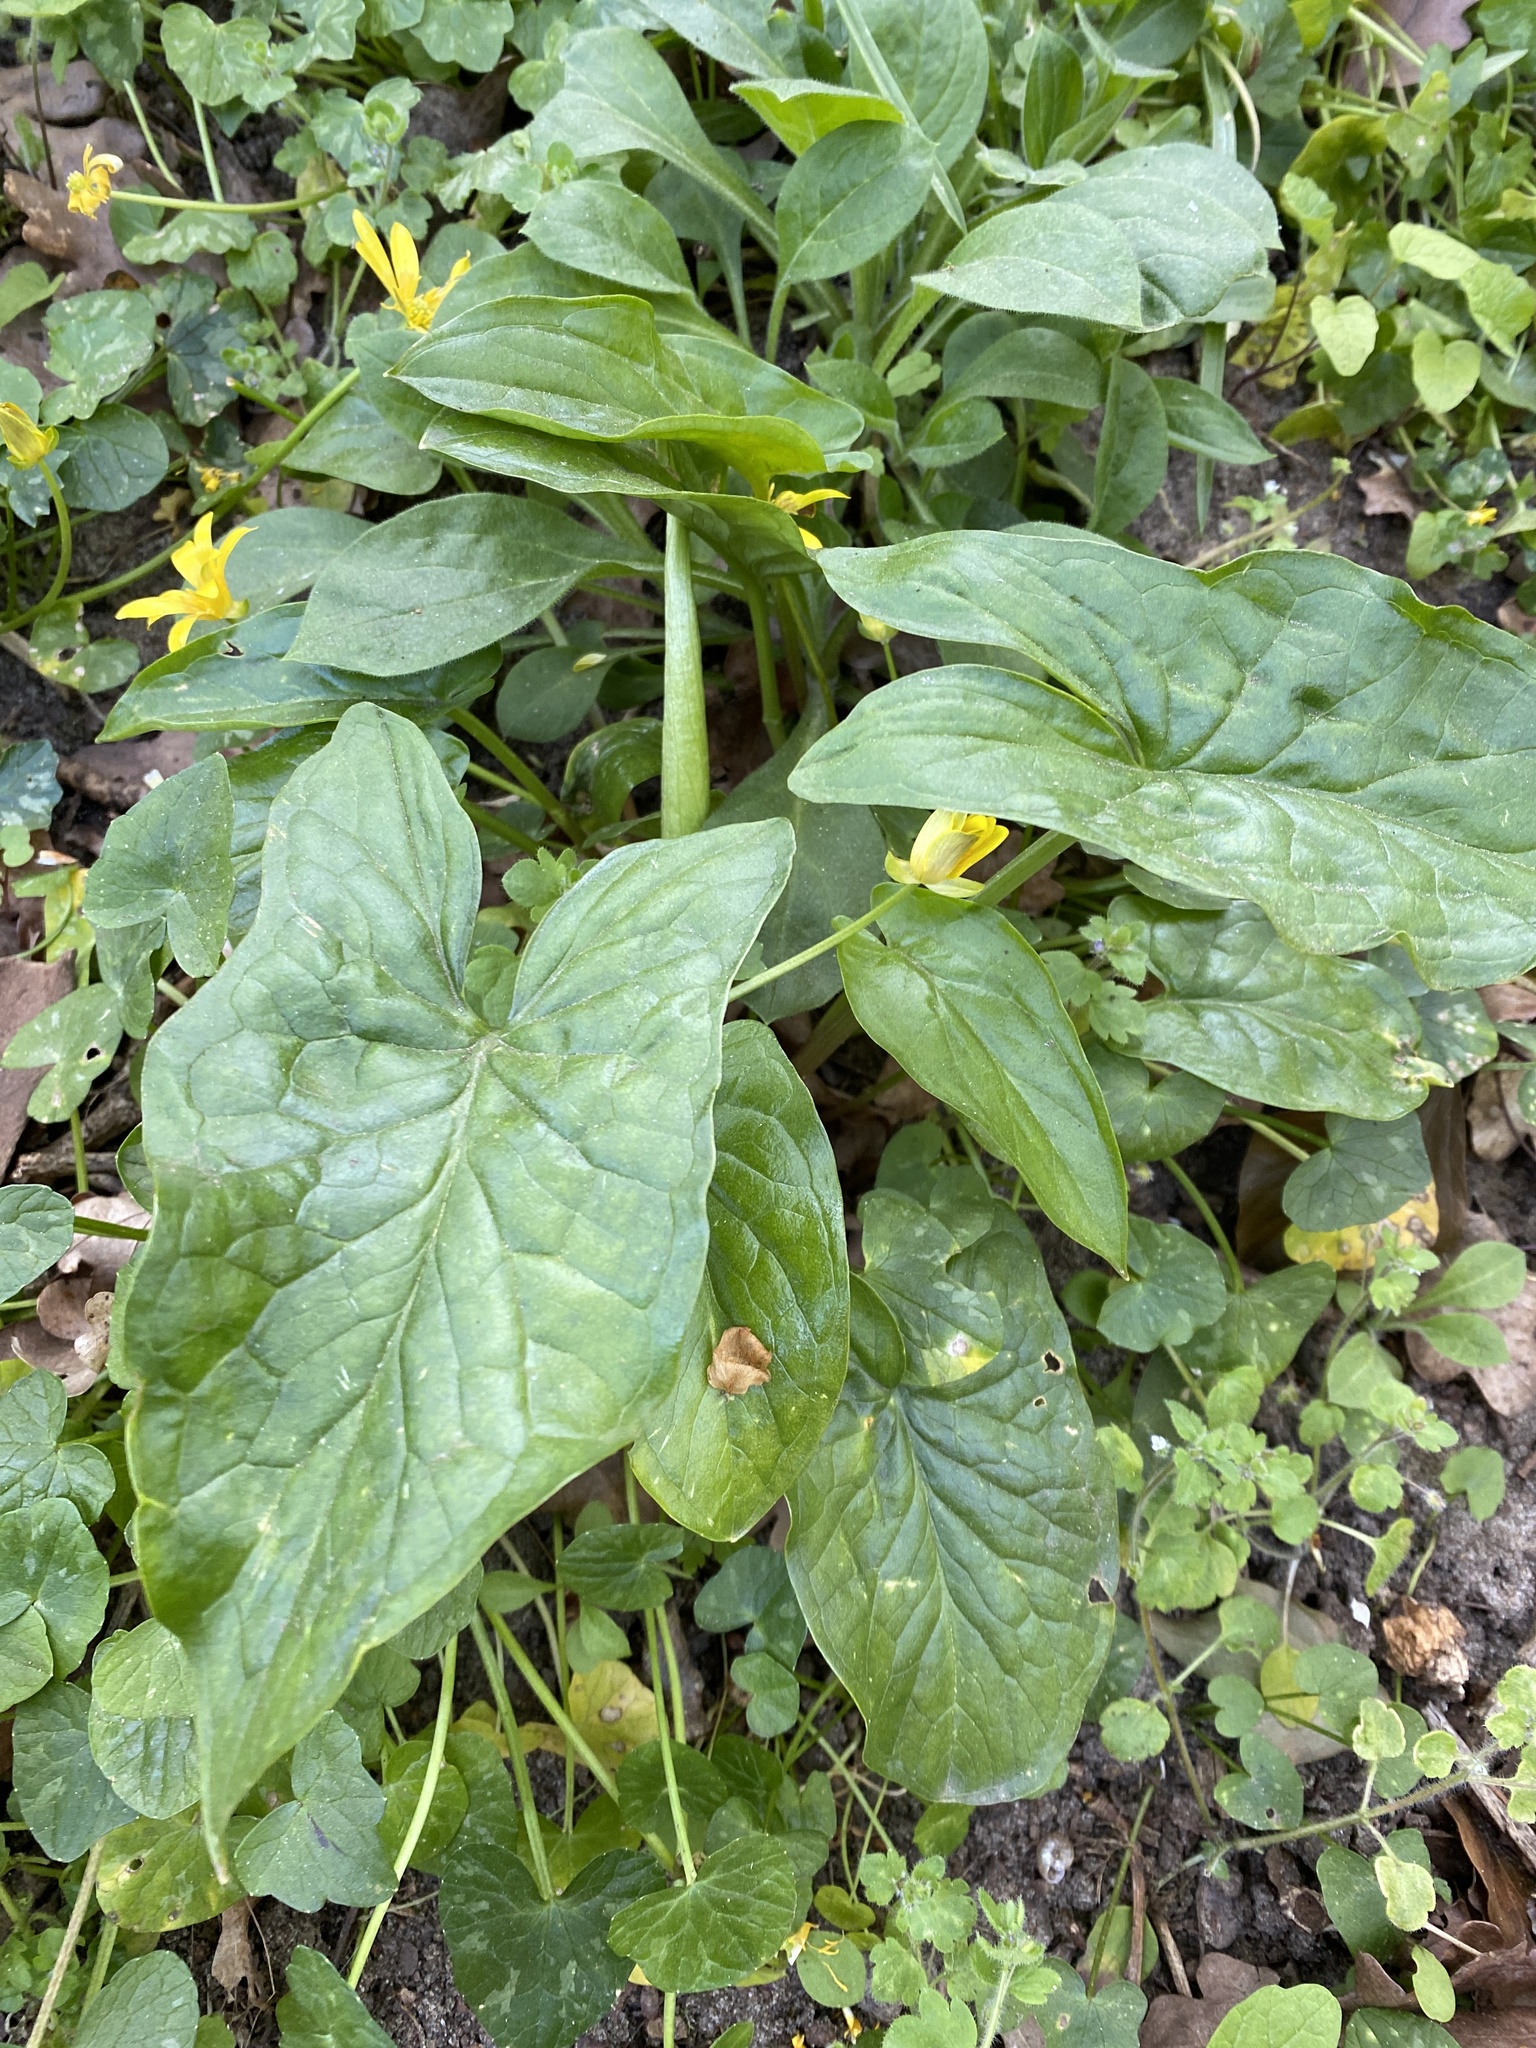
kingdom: Plantae
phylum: Tracheophyta
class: Liliopsida
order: Alismatales
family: Araceae
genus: Arum
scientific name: Arum maculatum
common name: Lords-and-ladies
